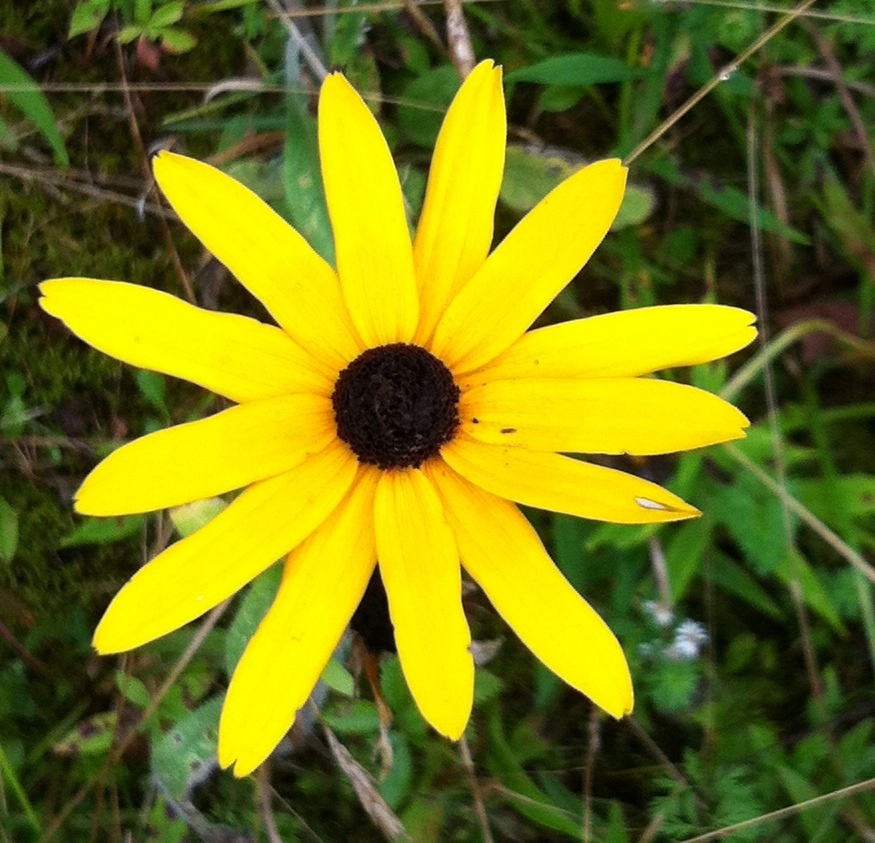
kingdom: Plantae
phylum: Tracheophyta
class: Magnoliopsida
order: Asterales
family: Asteraceae
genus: Rudbeckia
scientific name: Rudbeckia hirta
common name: Black-eyed-susan
